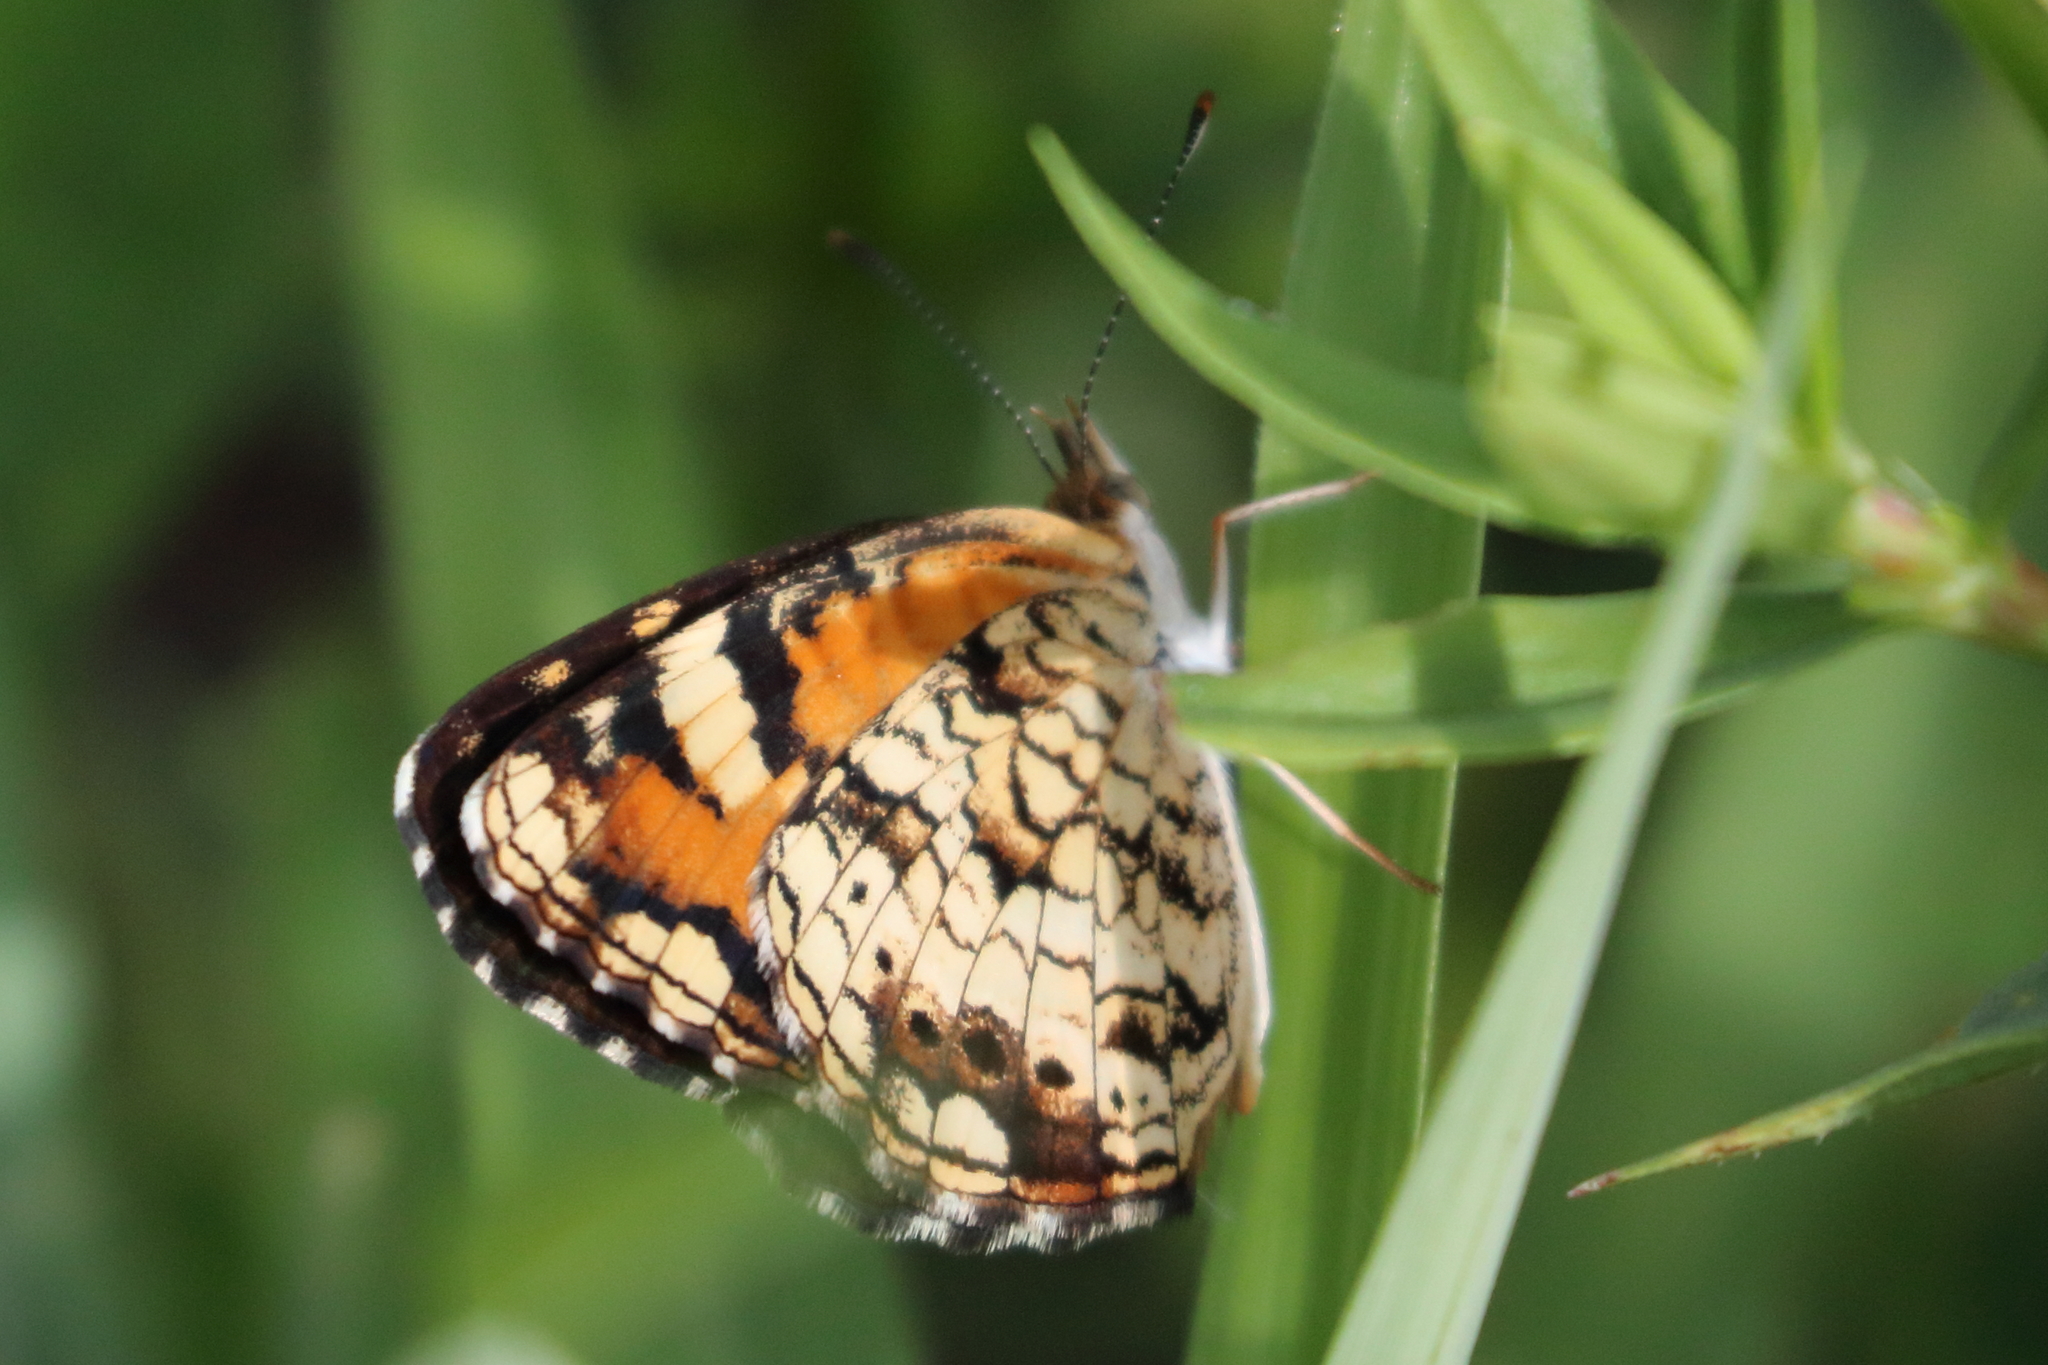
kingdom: Animalia
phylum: Arthropoda
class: Insecta
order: Lepidoptera
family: Nymphalidae
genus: Phyciodes
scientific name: Phyciodes phaon
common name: Phaon crescent
